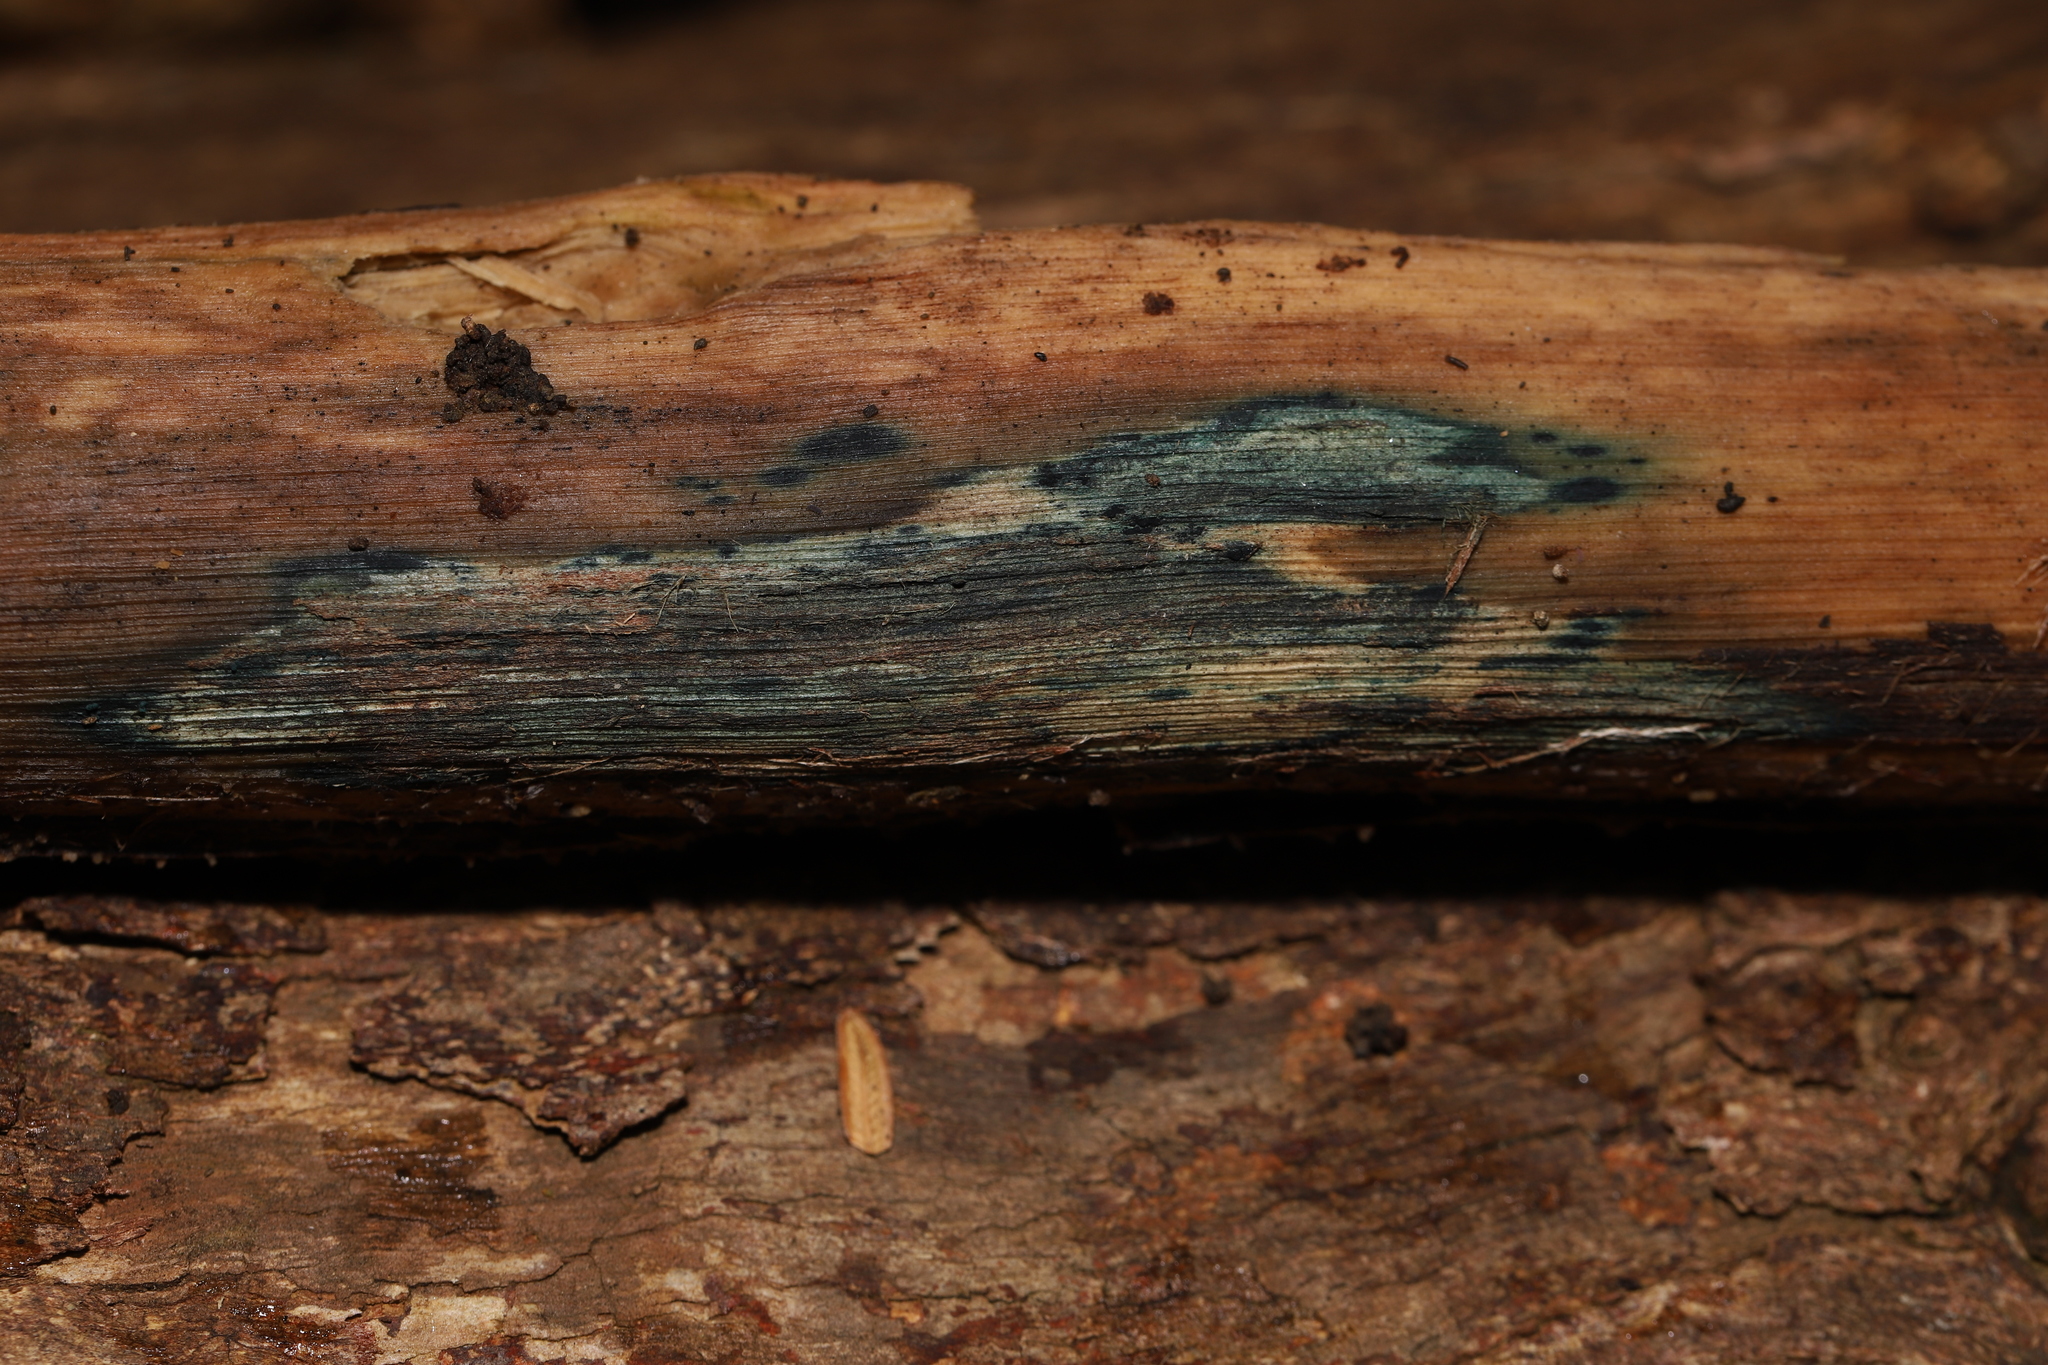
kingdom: Fungi
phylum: Ascomycota
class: Leotiomycetes
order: Helotiales
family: Chlorociboriaceae
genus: Chlorociboria
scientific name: Chlorociboria
